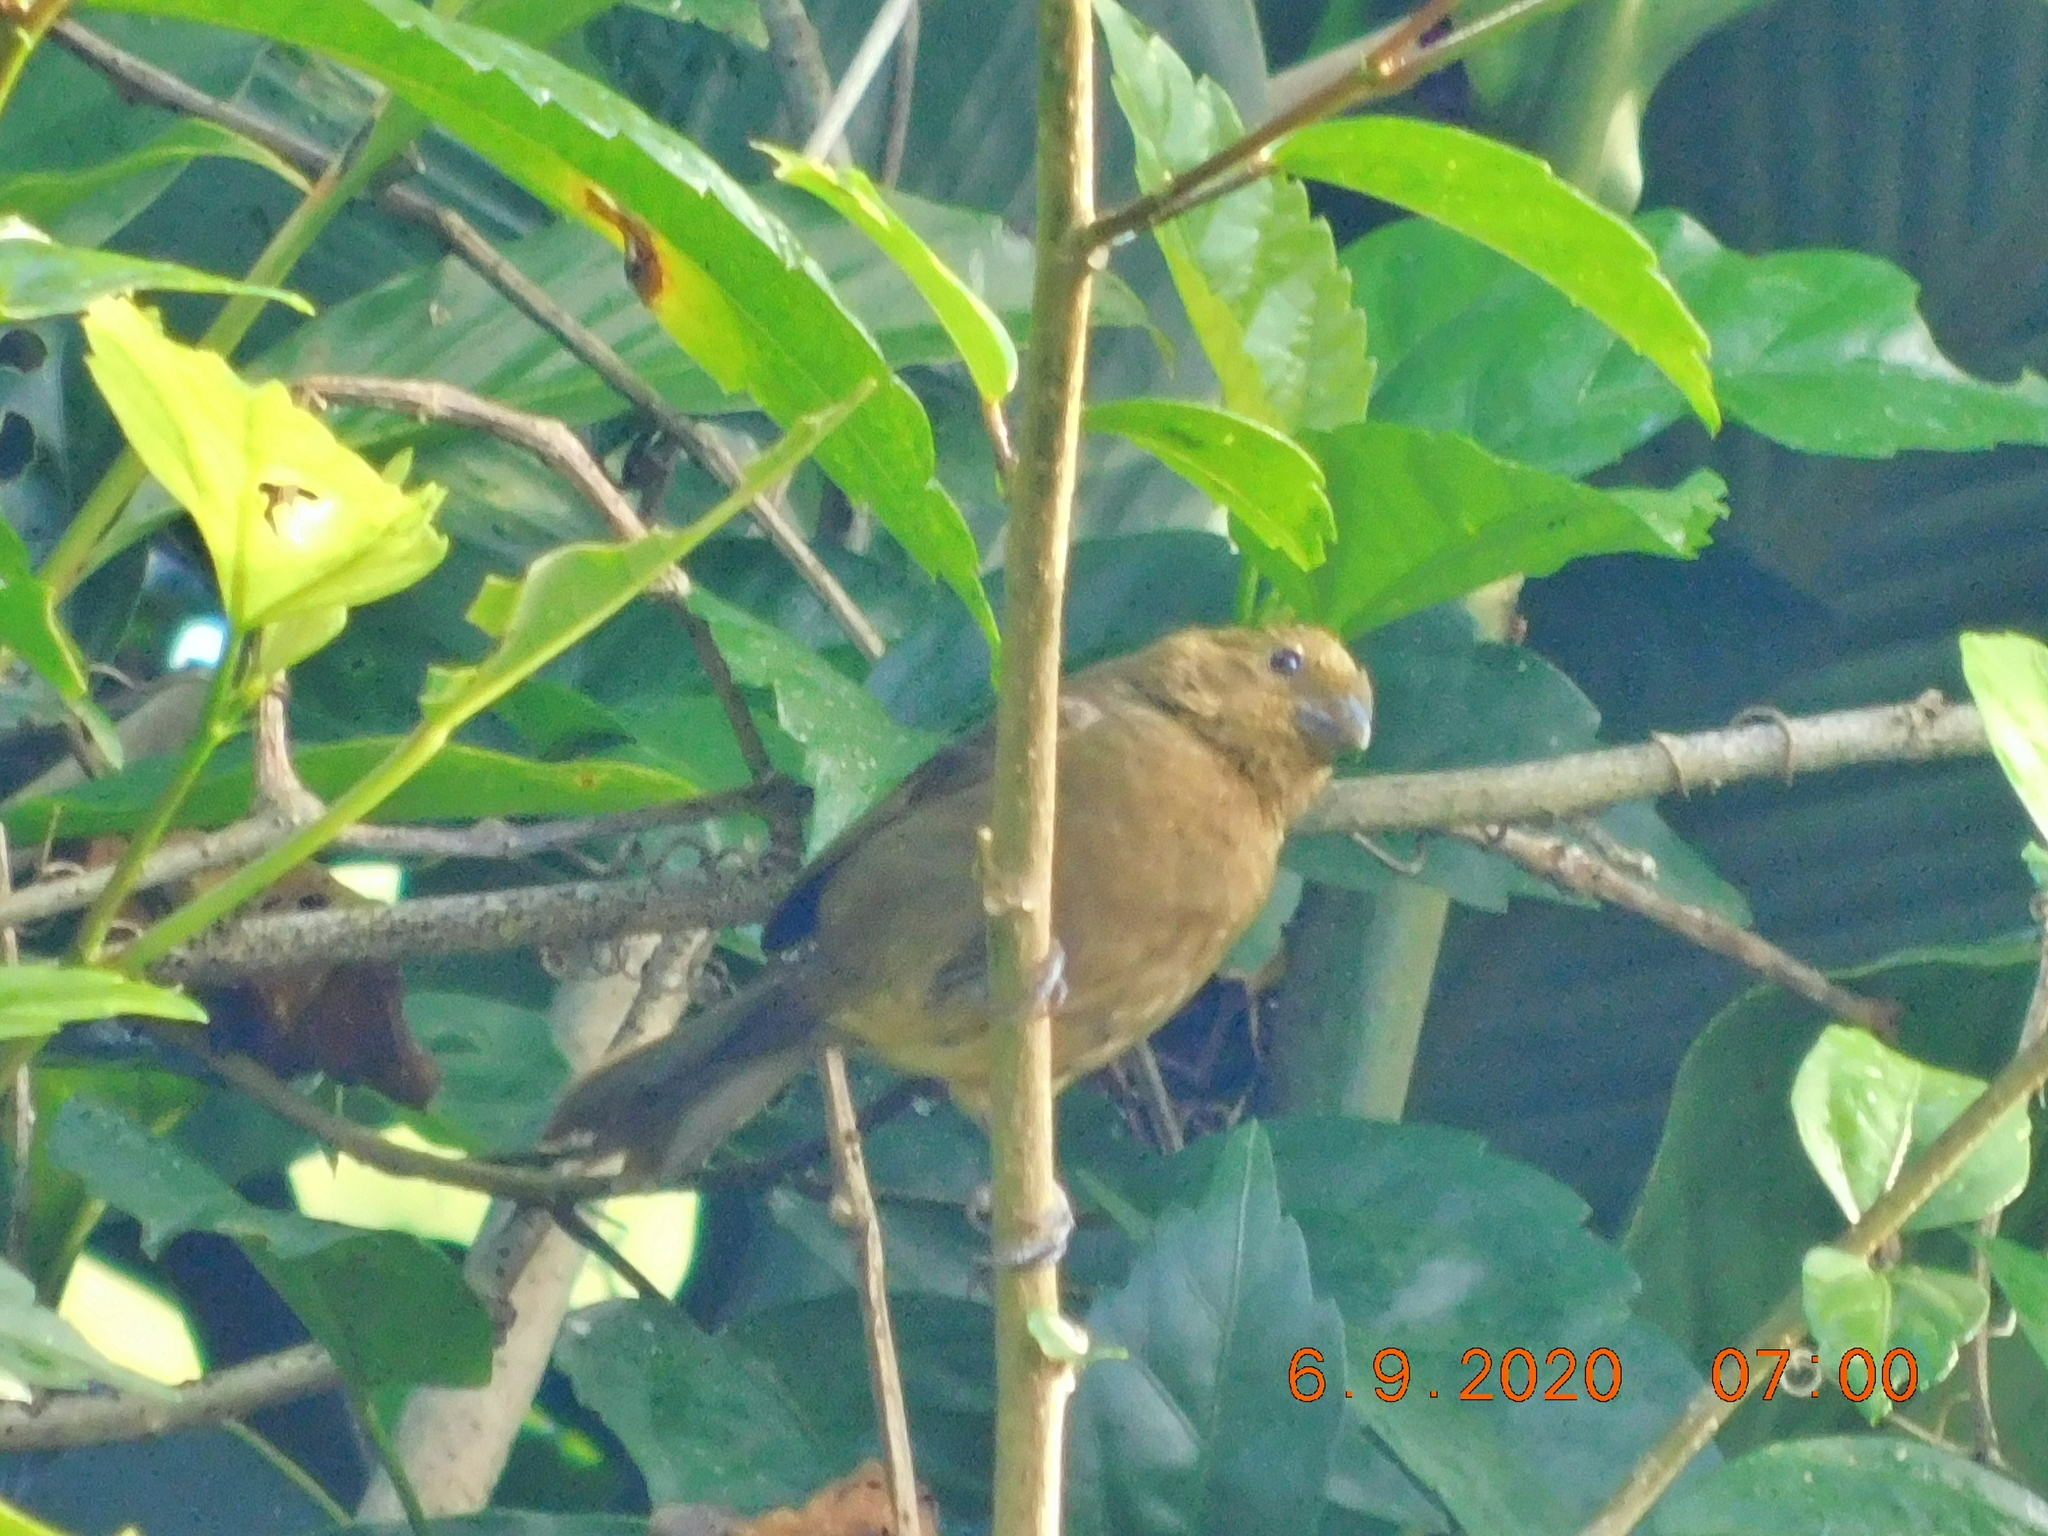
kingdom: Animalia
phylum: Chordata
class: Aves
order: Passeriformes
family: Thraupidae
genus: Sporophila
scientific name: Sporophila corvina
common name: Variable seedeater
